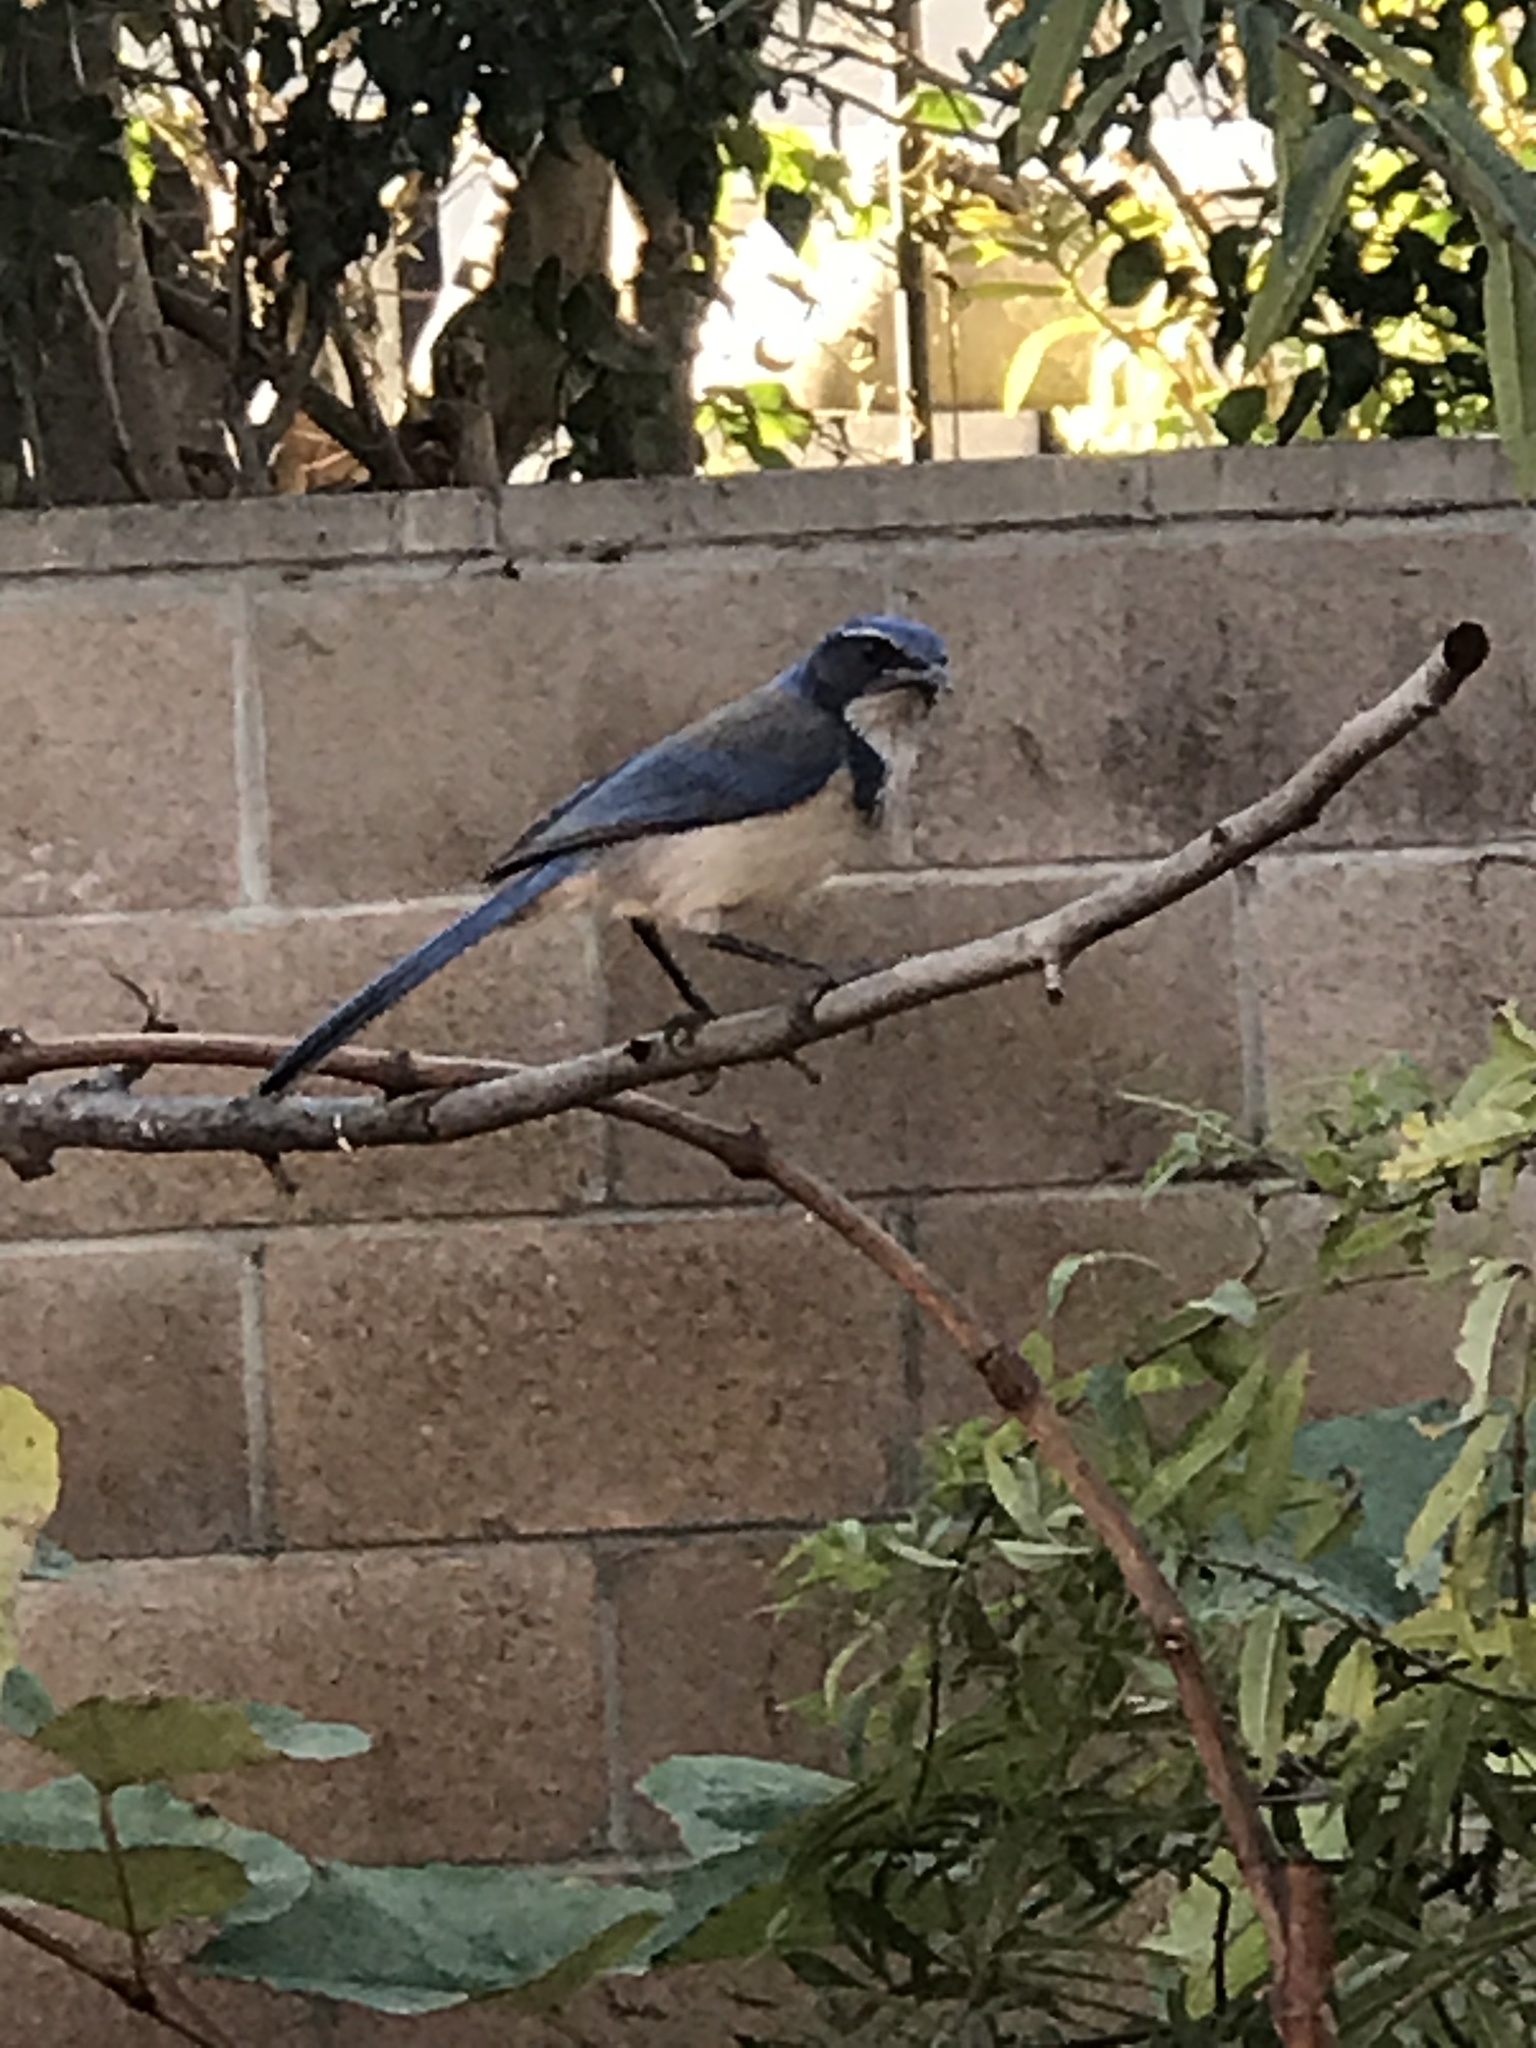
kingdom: Animalia
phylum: Chordata
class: Aves
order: Passeriformes
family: Corvidae
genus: Aphelocoma
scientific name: Aphelocoma californica
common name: California scrub-jay
